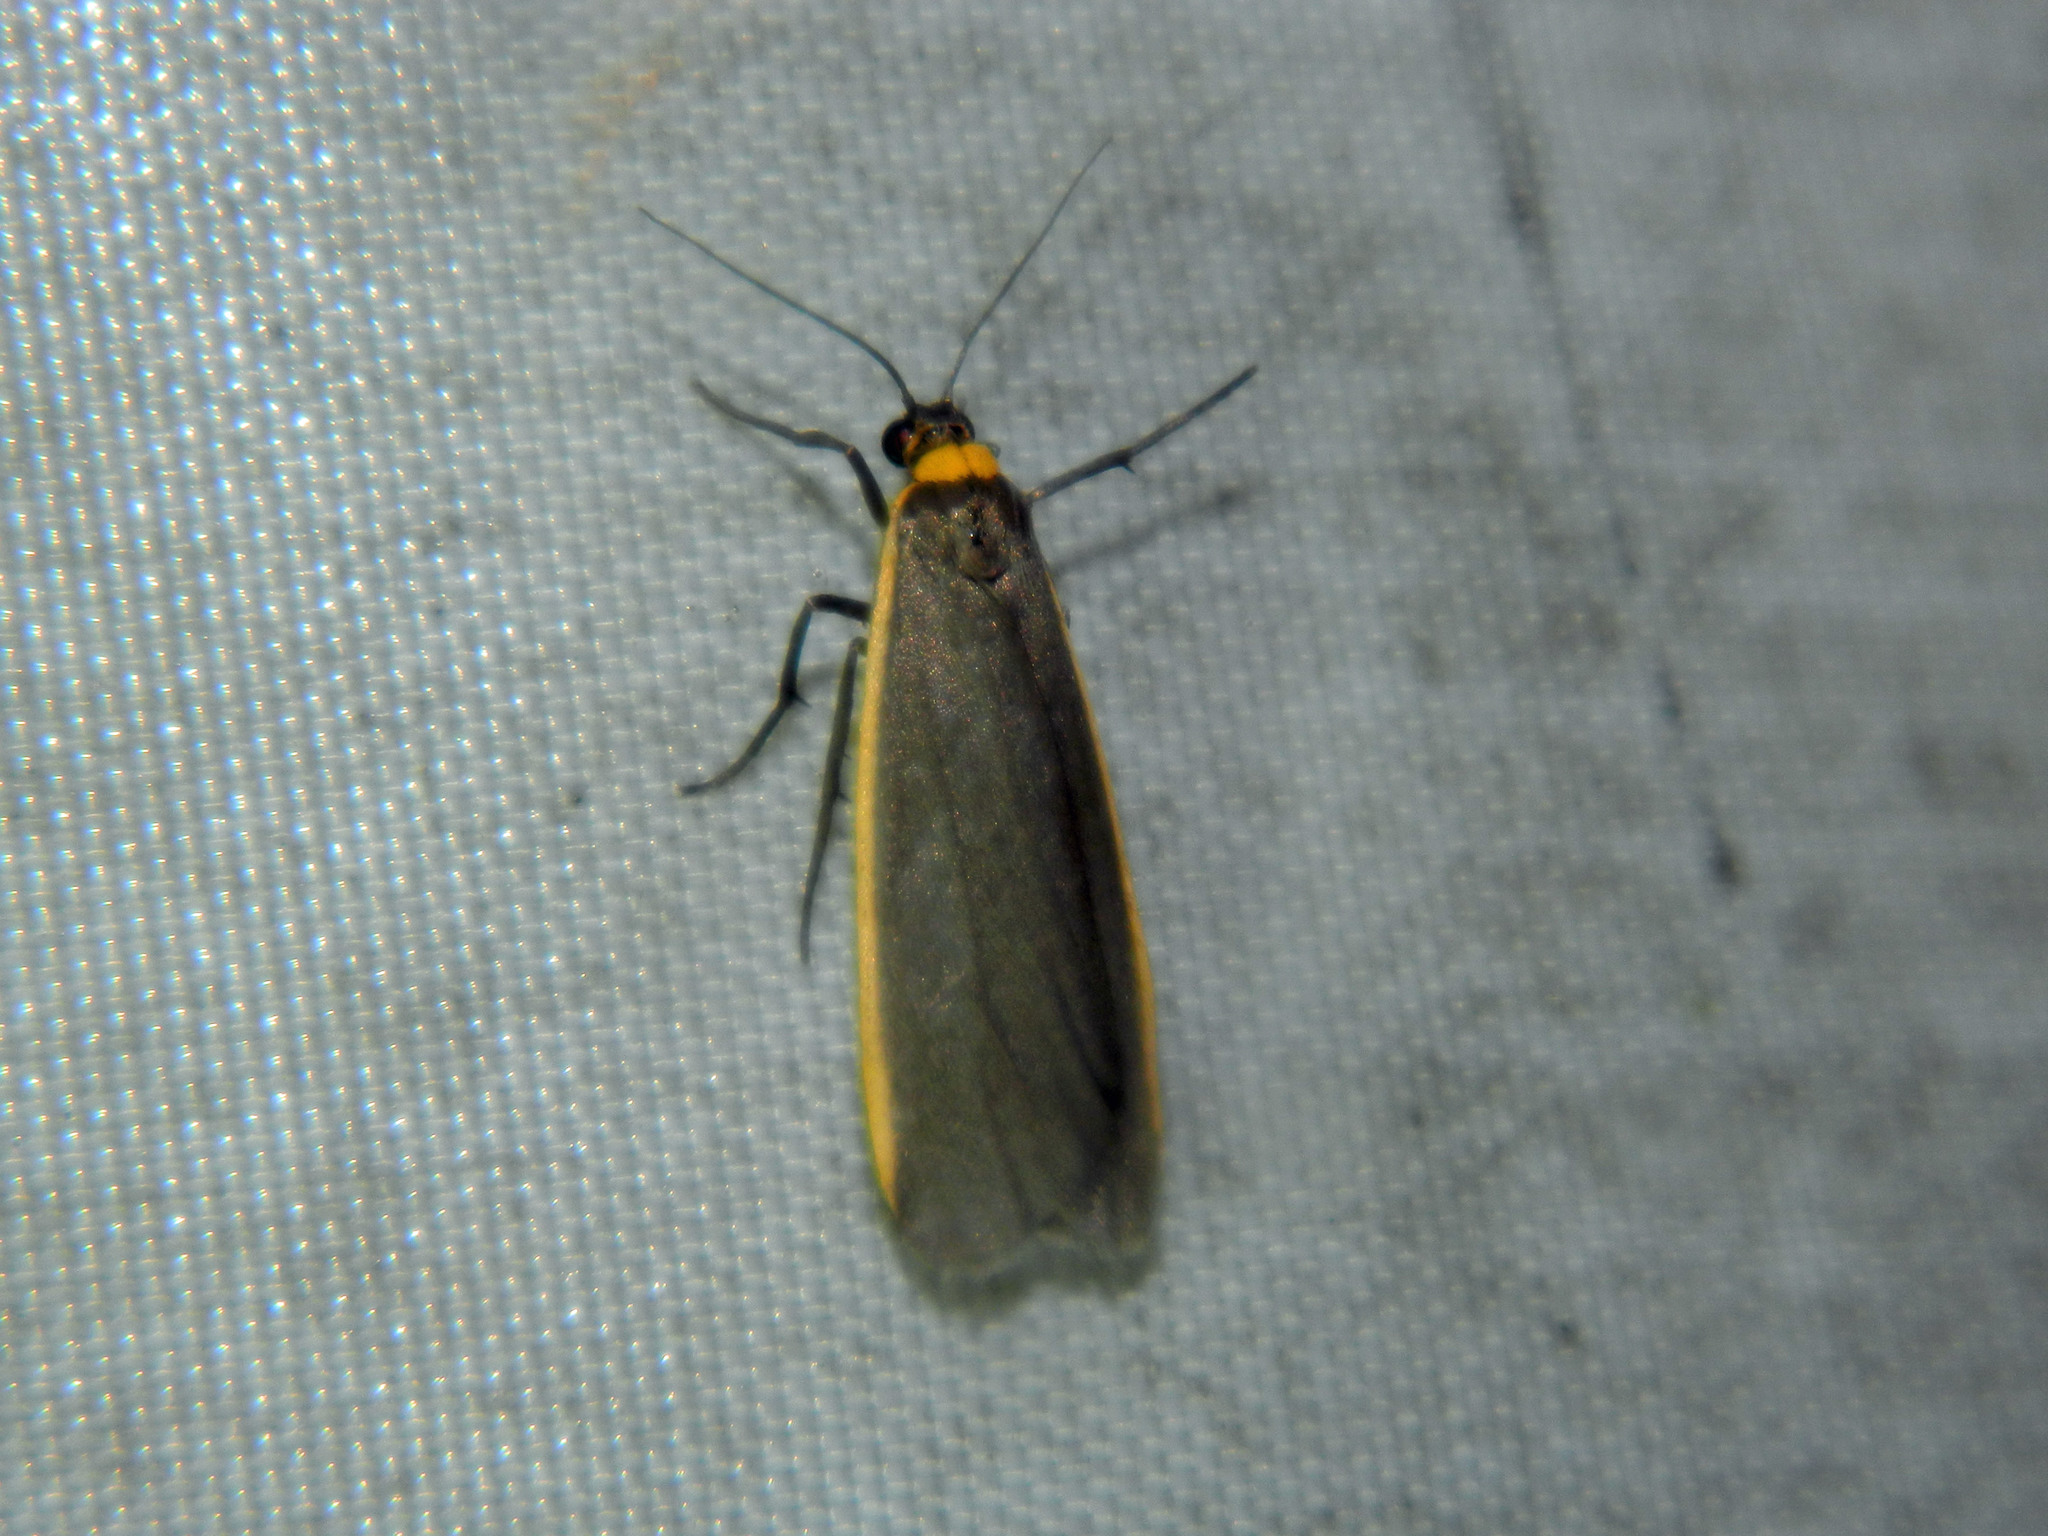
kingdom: Animalia
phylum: Arthropoda
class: Insecta
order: Lepidoptera
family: Erebidae
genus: Manulea
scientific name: Manulea bicolor
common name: Bicolored moth
